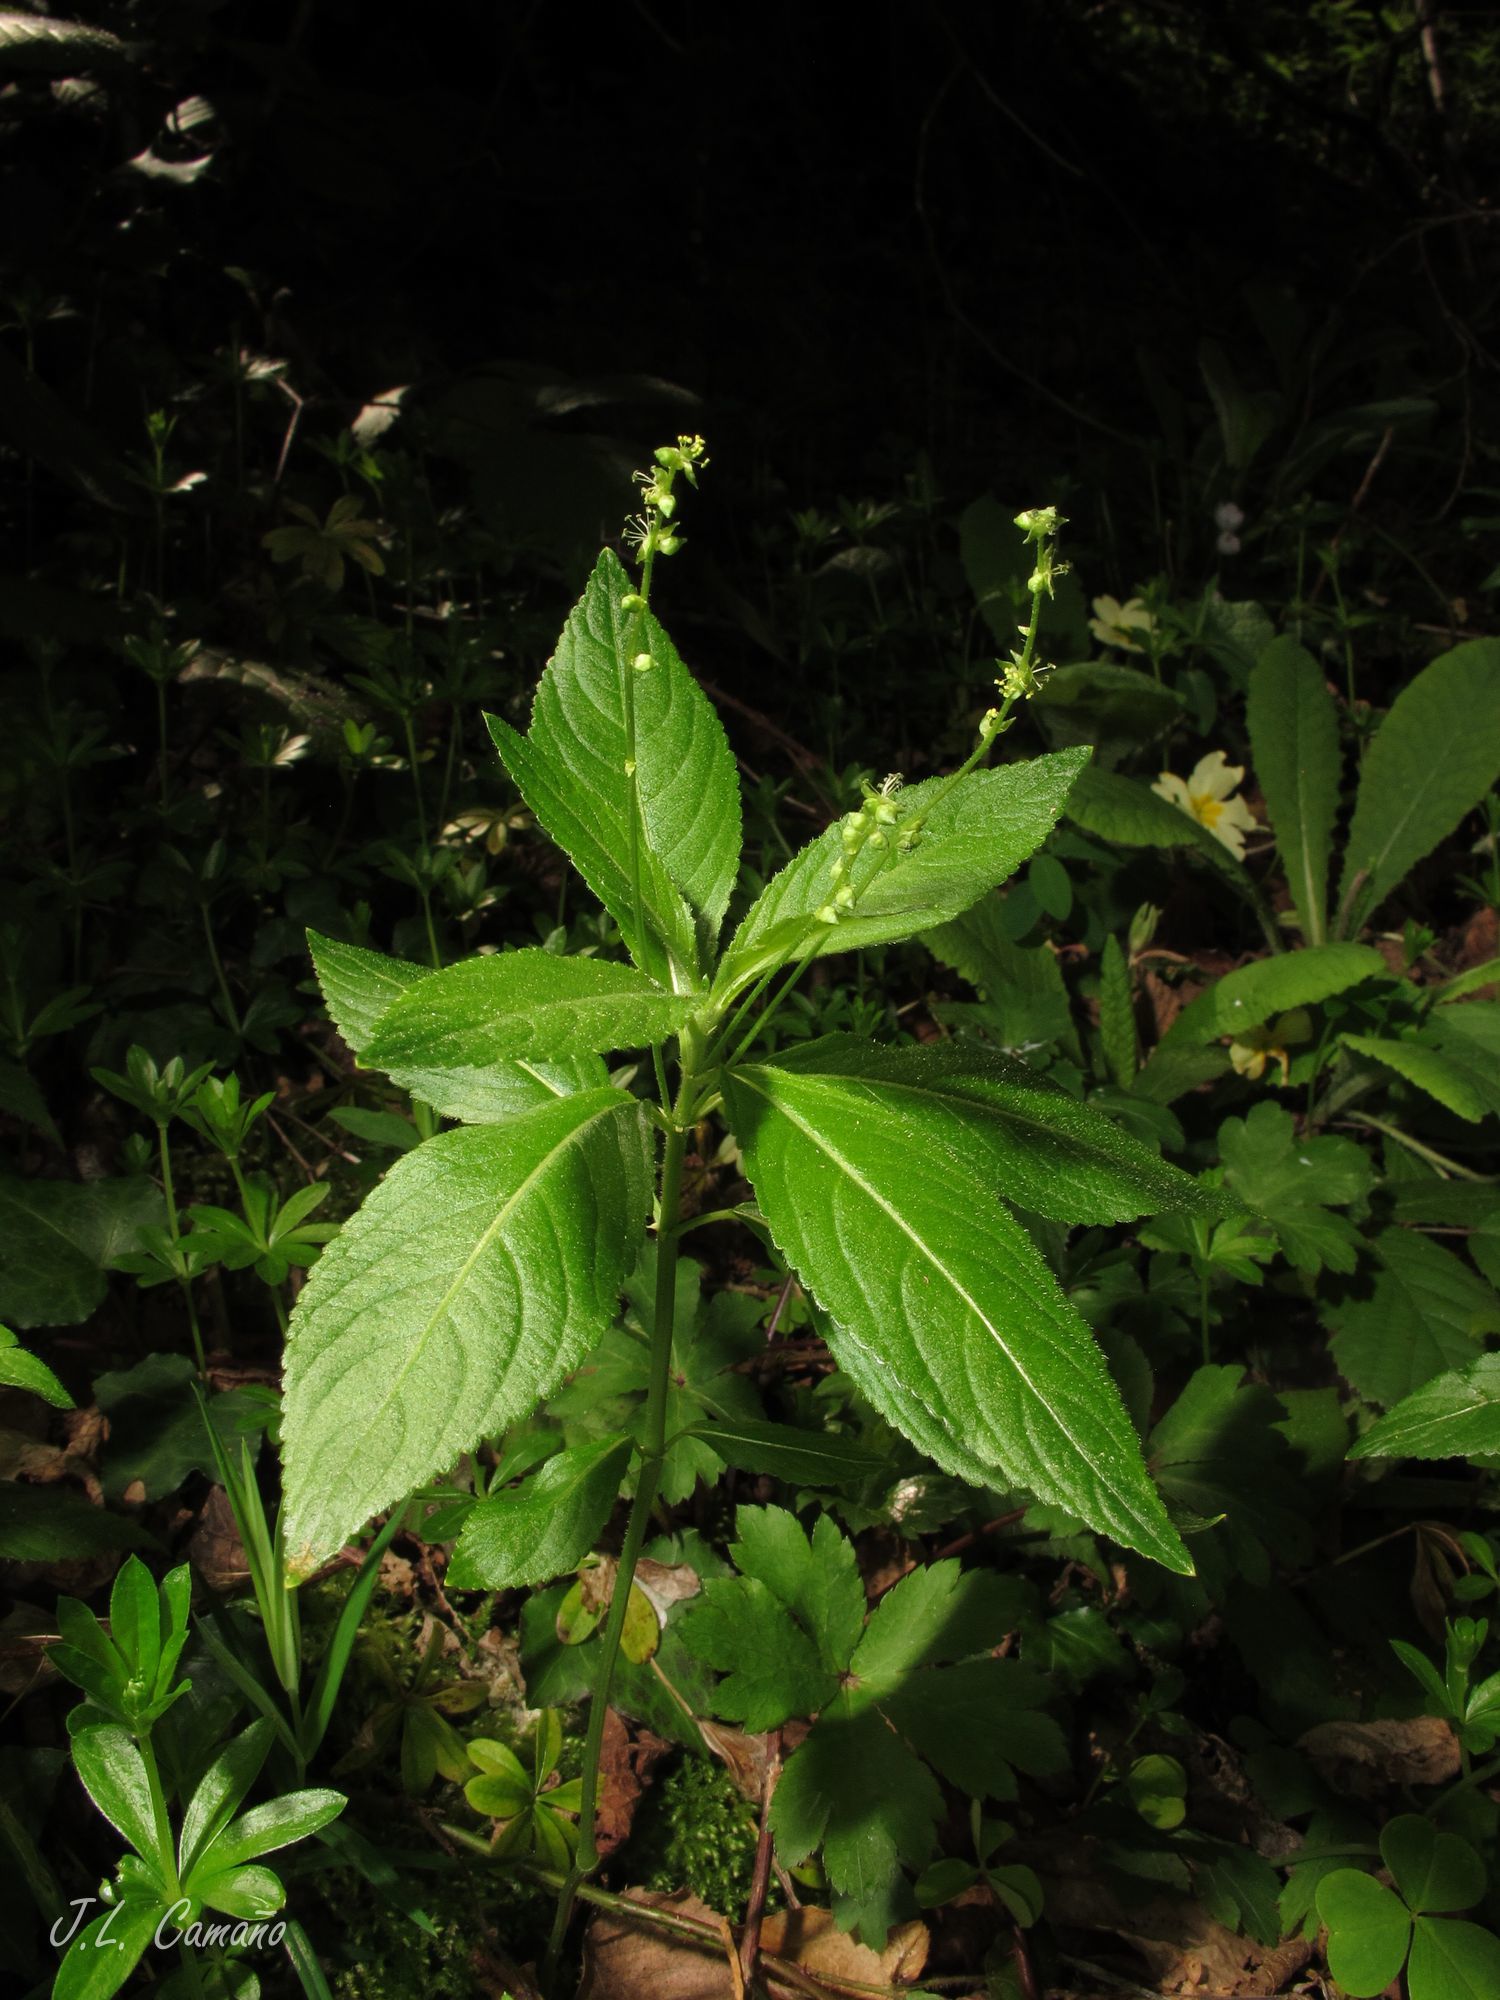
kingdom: Plantae
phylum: Tracheophyta
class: Magnoliopsida
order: Malpighiales
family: Euphorbiaceae
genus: Mercurialis
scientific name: Mercurialis perennis
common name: Dog mercury
